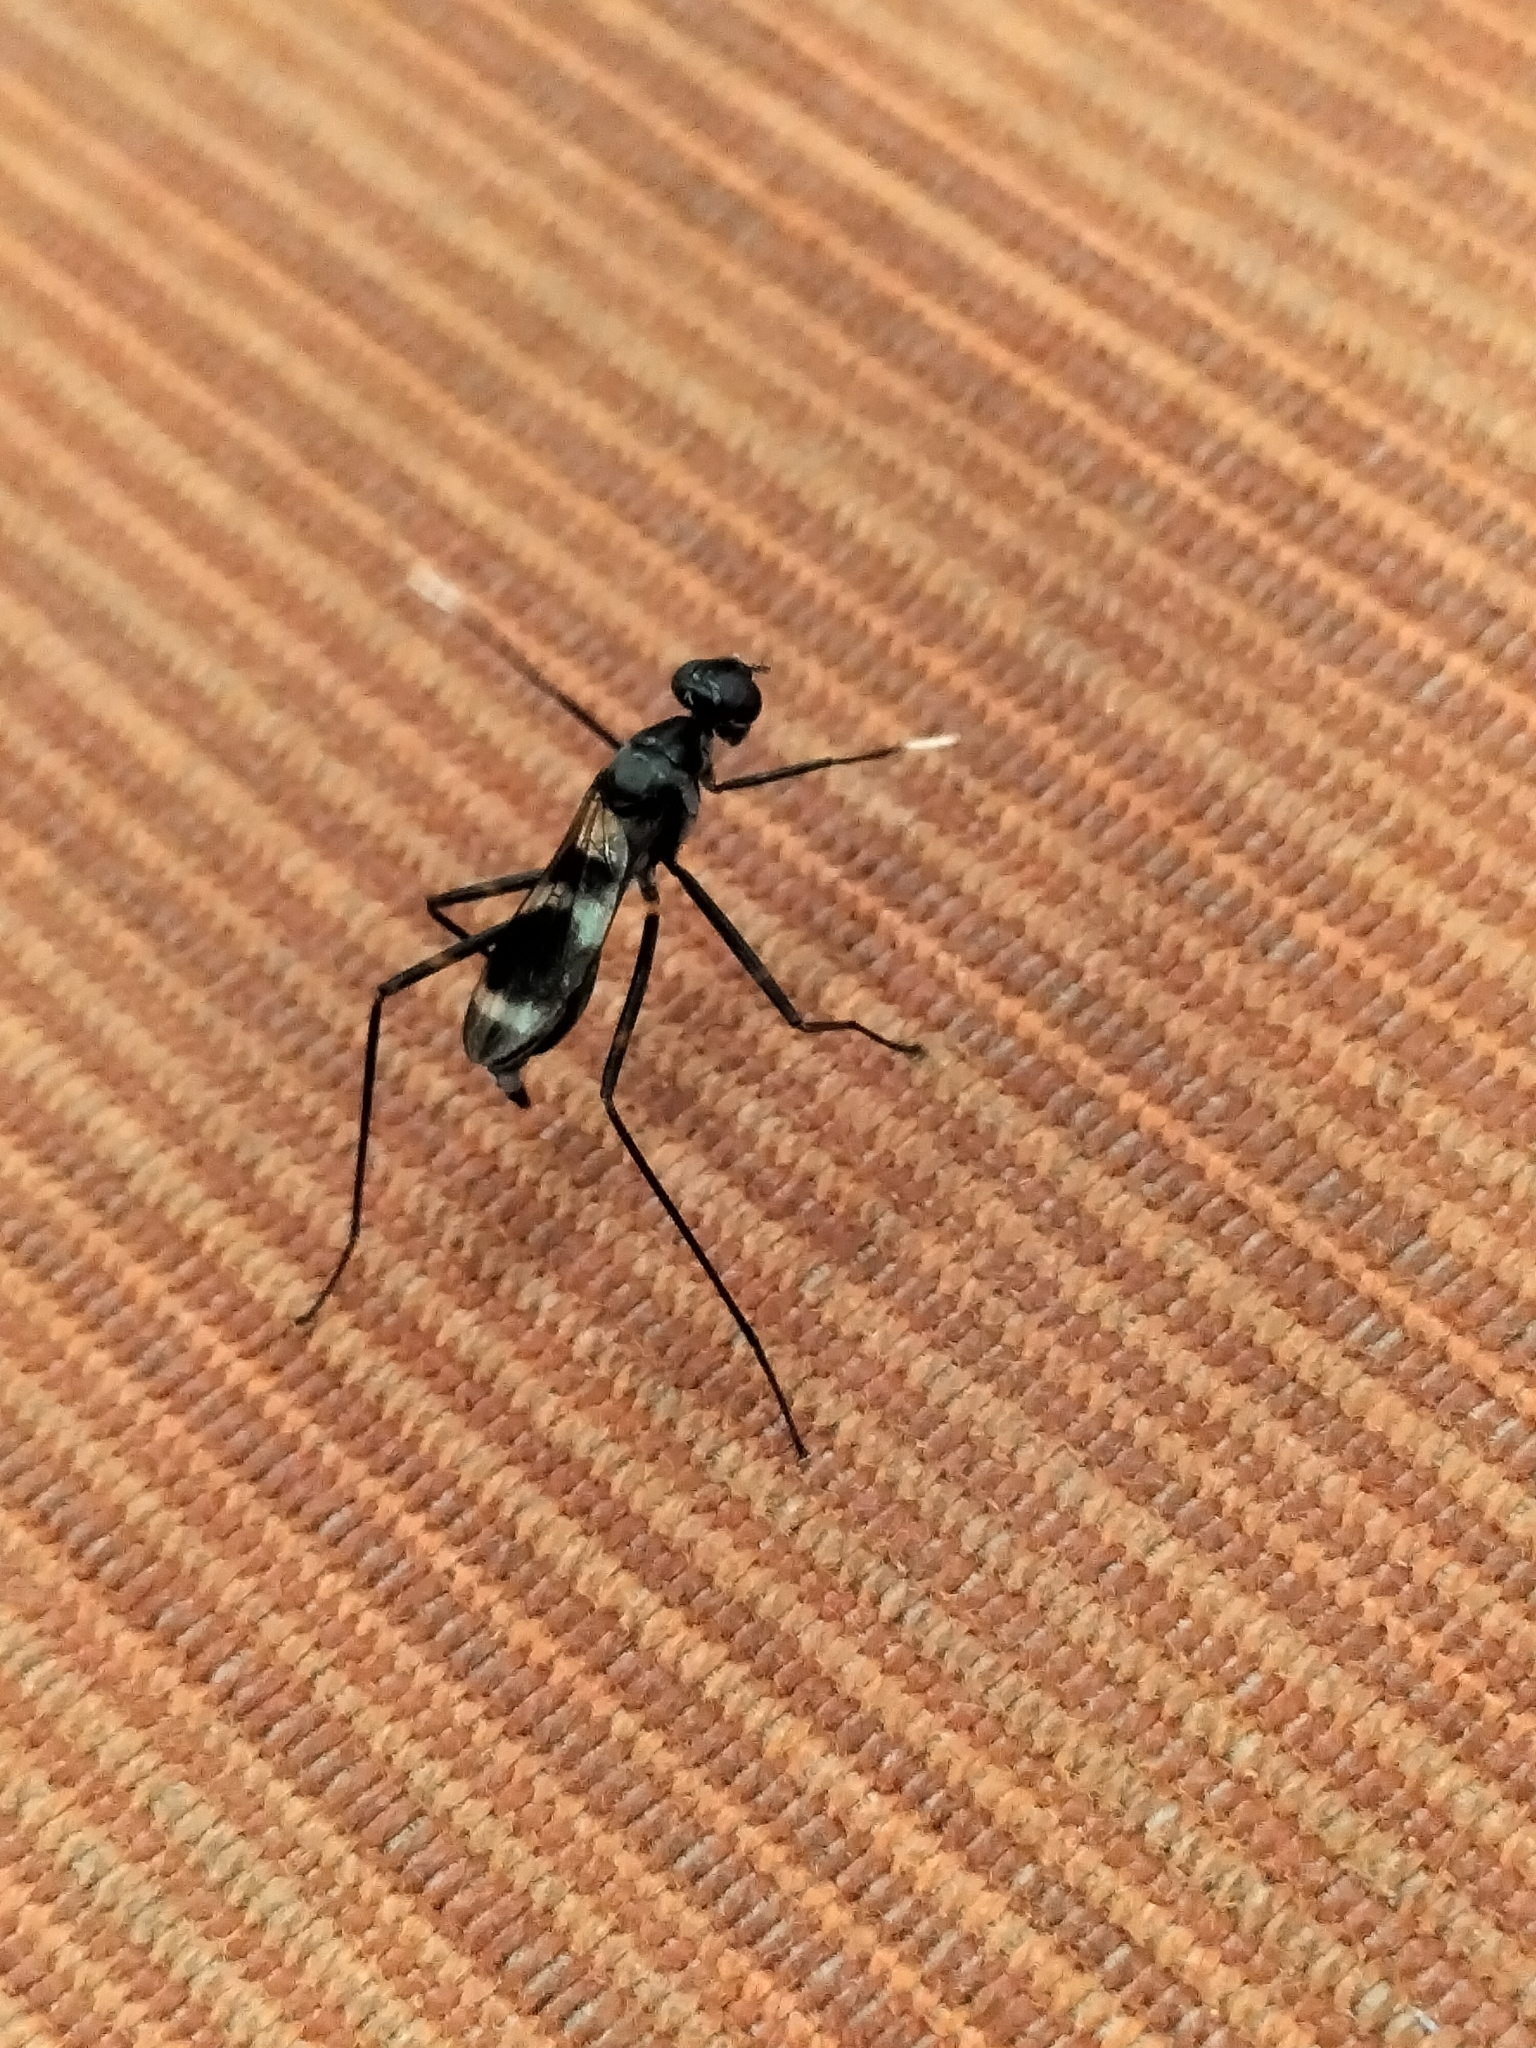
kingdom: Animalia
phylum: Arthropoda
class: Insecta
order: Diptera
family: Micropezidae
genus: Mimegralla
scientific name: Mimegralla australica
